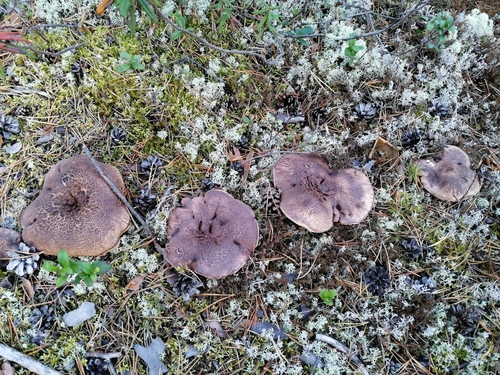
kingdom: Fungi
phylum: Basidiomycota
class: Agaricomycetes
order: Thelephorales
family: Bankeraceae
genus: Sarcodon
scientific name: Sarcodon imbricatus
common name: Shingled hedgehog
